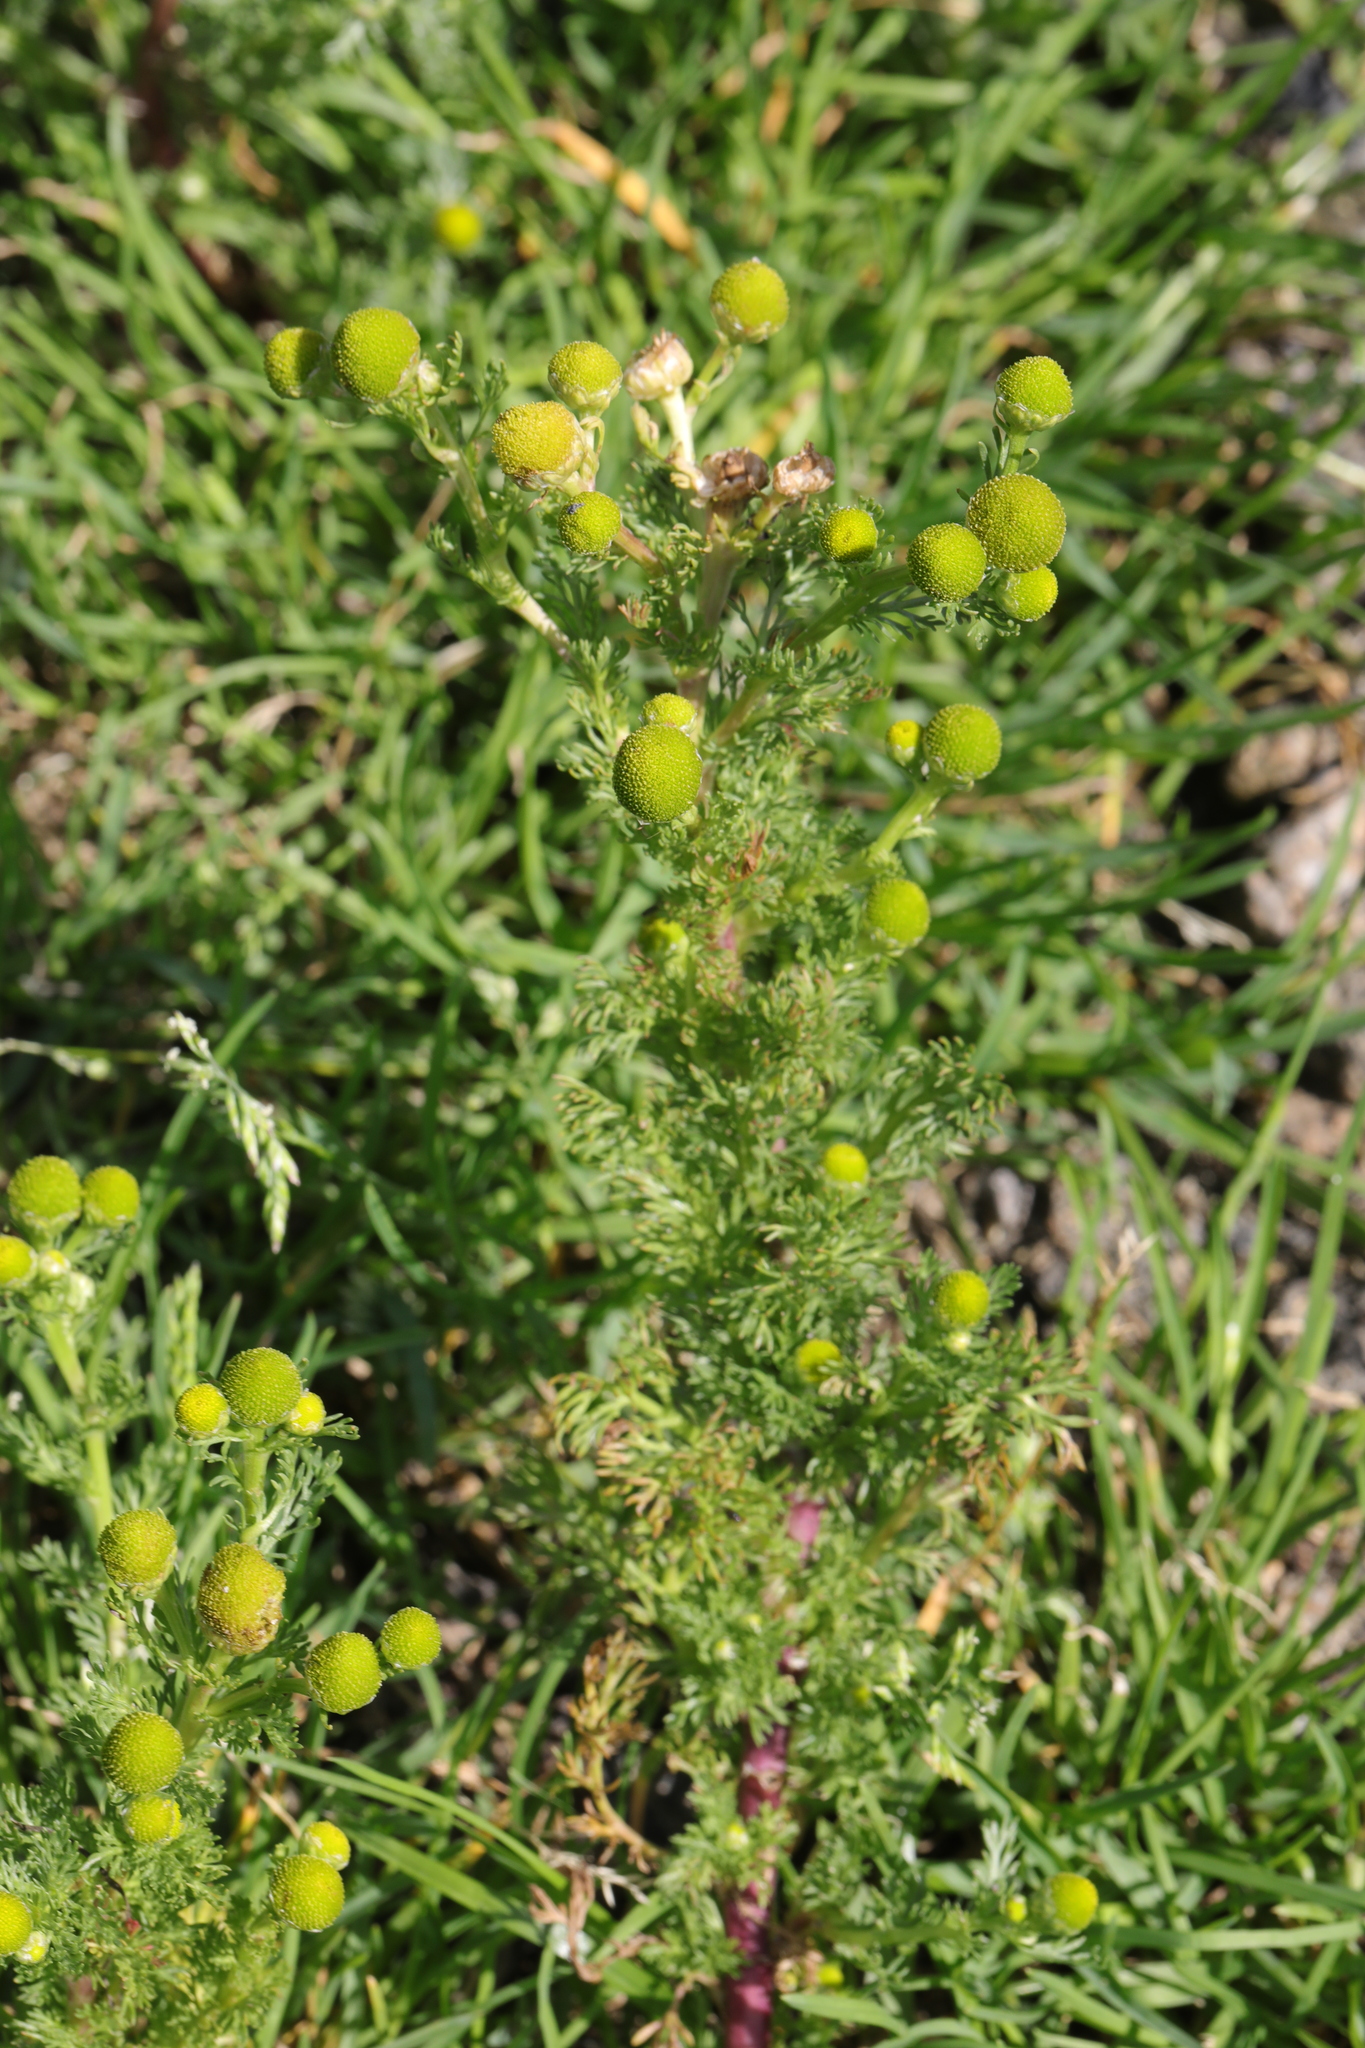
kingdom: Plantae
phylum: Tracheophyta
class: Magnoliopsida
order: Asterales
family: Asteraceae
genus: Matricaria
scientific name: Matricaria discoidea
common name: Disc mayweed
